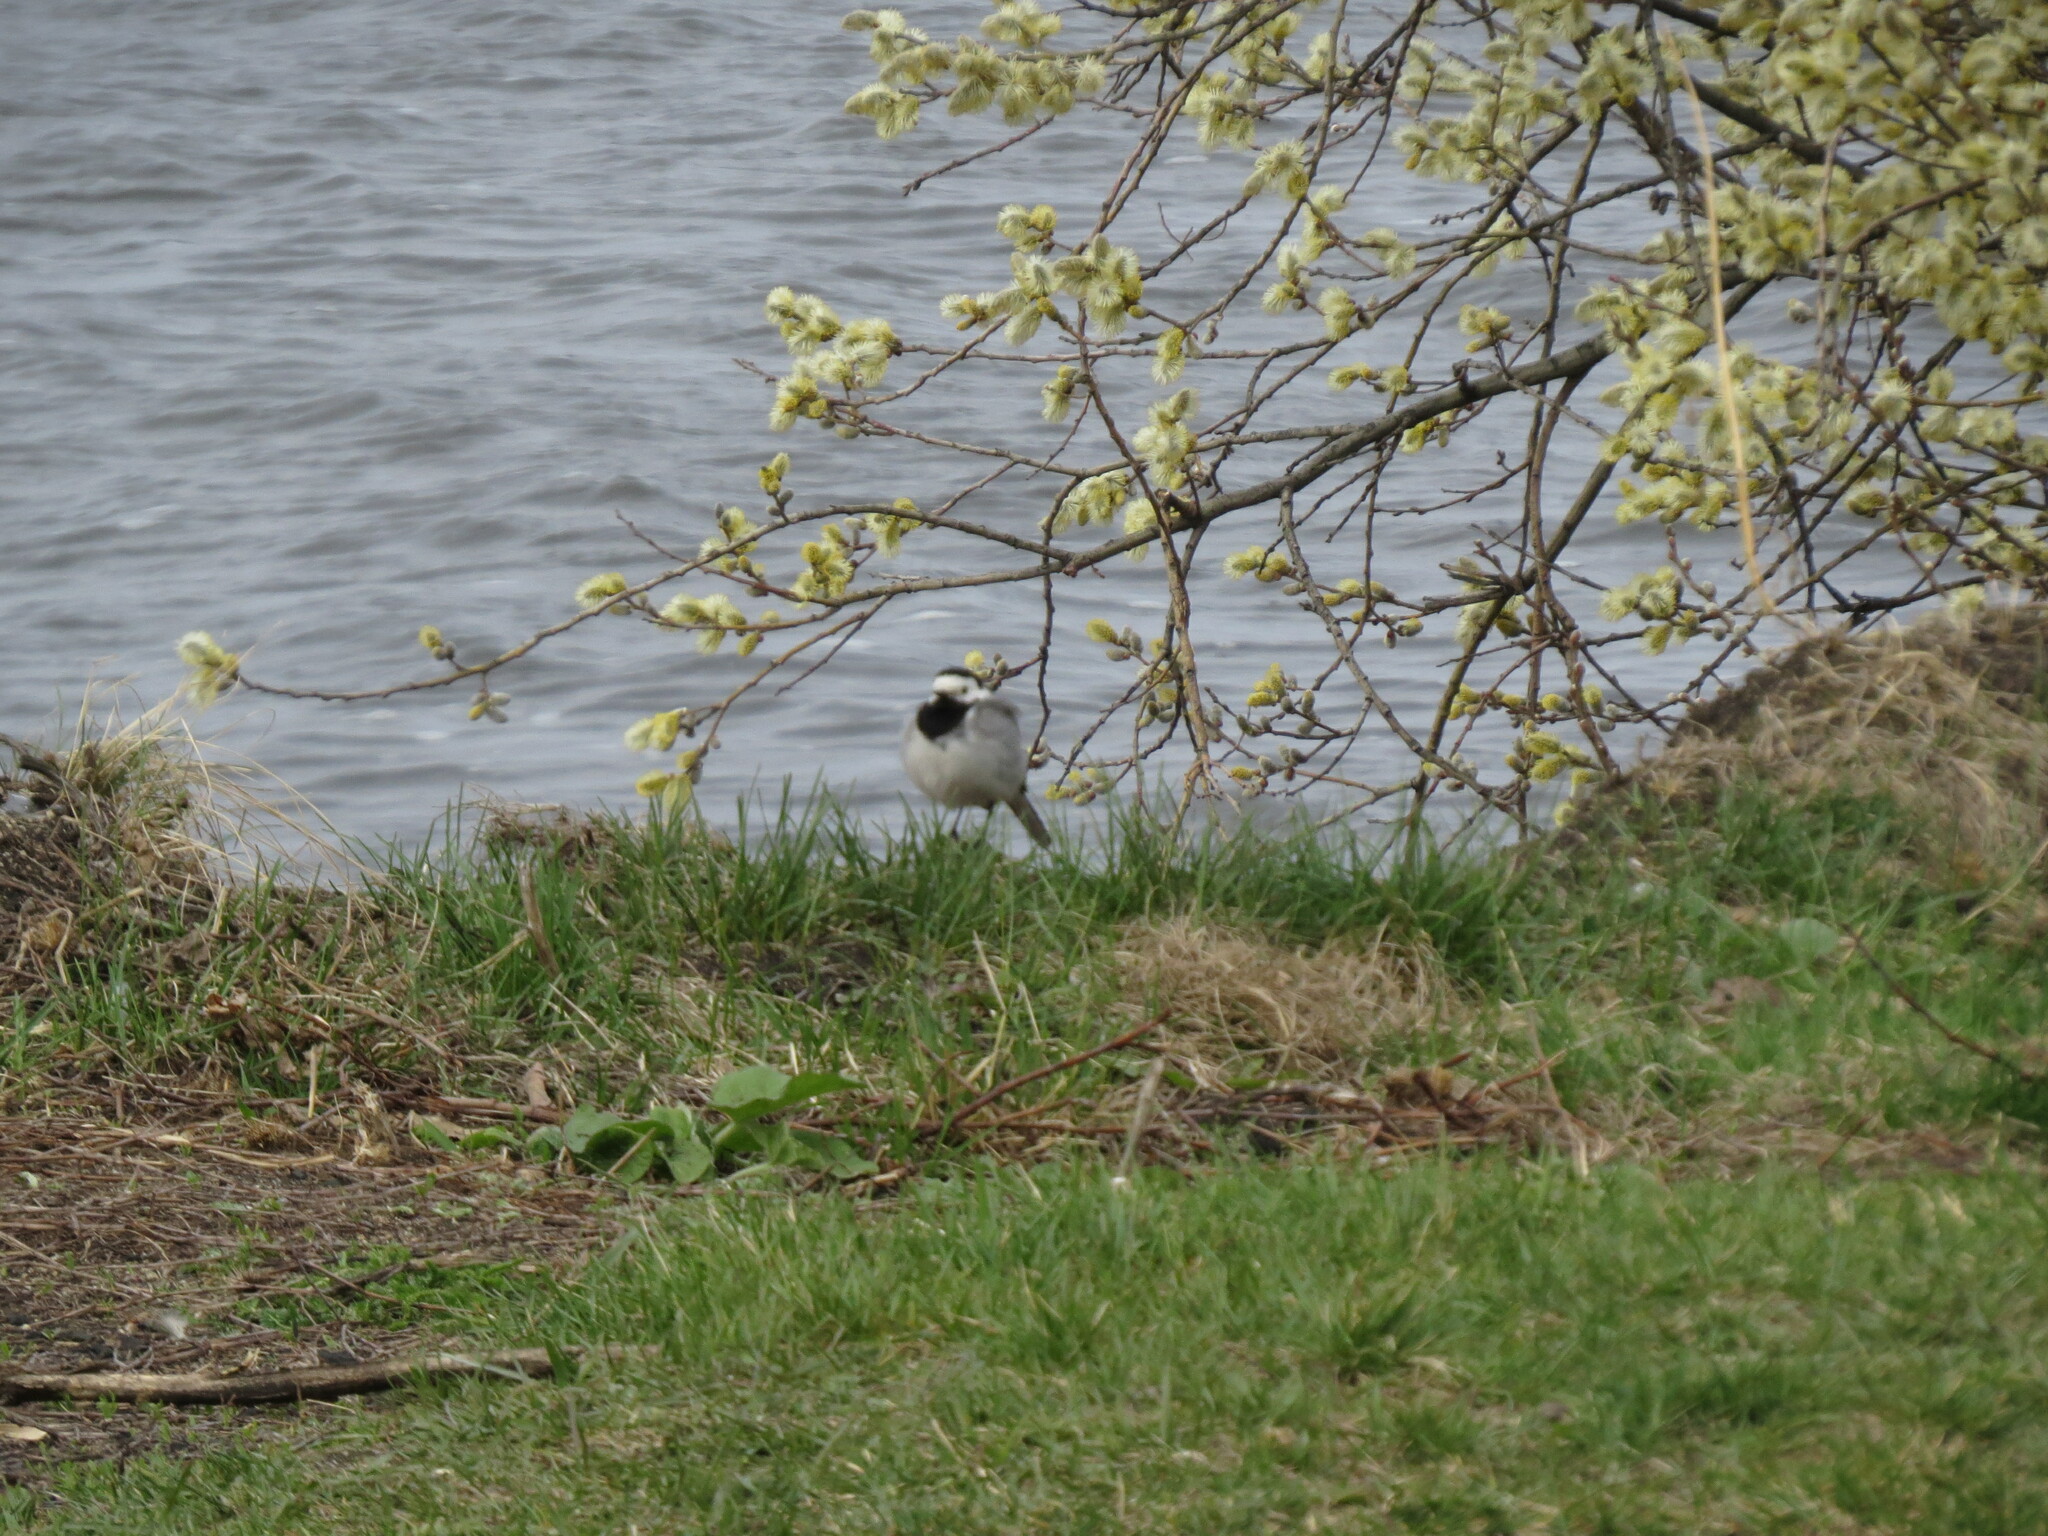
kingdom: Animalia
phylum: Chordata
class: Aves
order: Passeriformes
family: Motacillidae
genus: Motacilla
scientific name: Motacilla alba
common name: White wagtail
